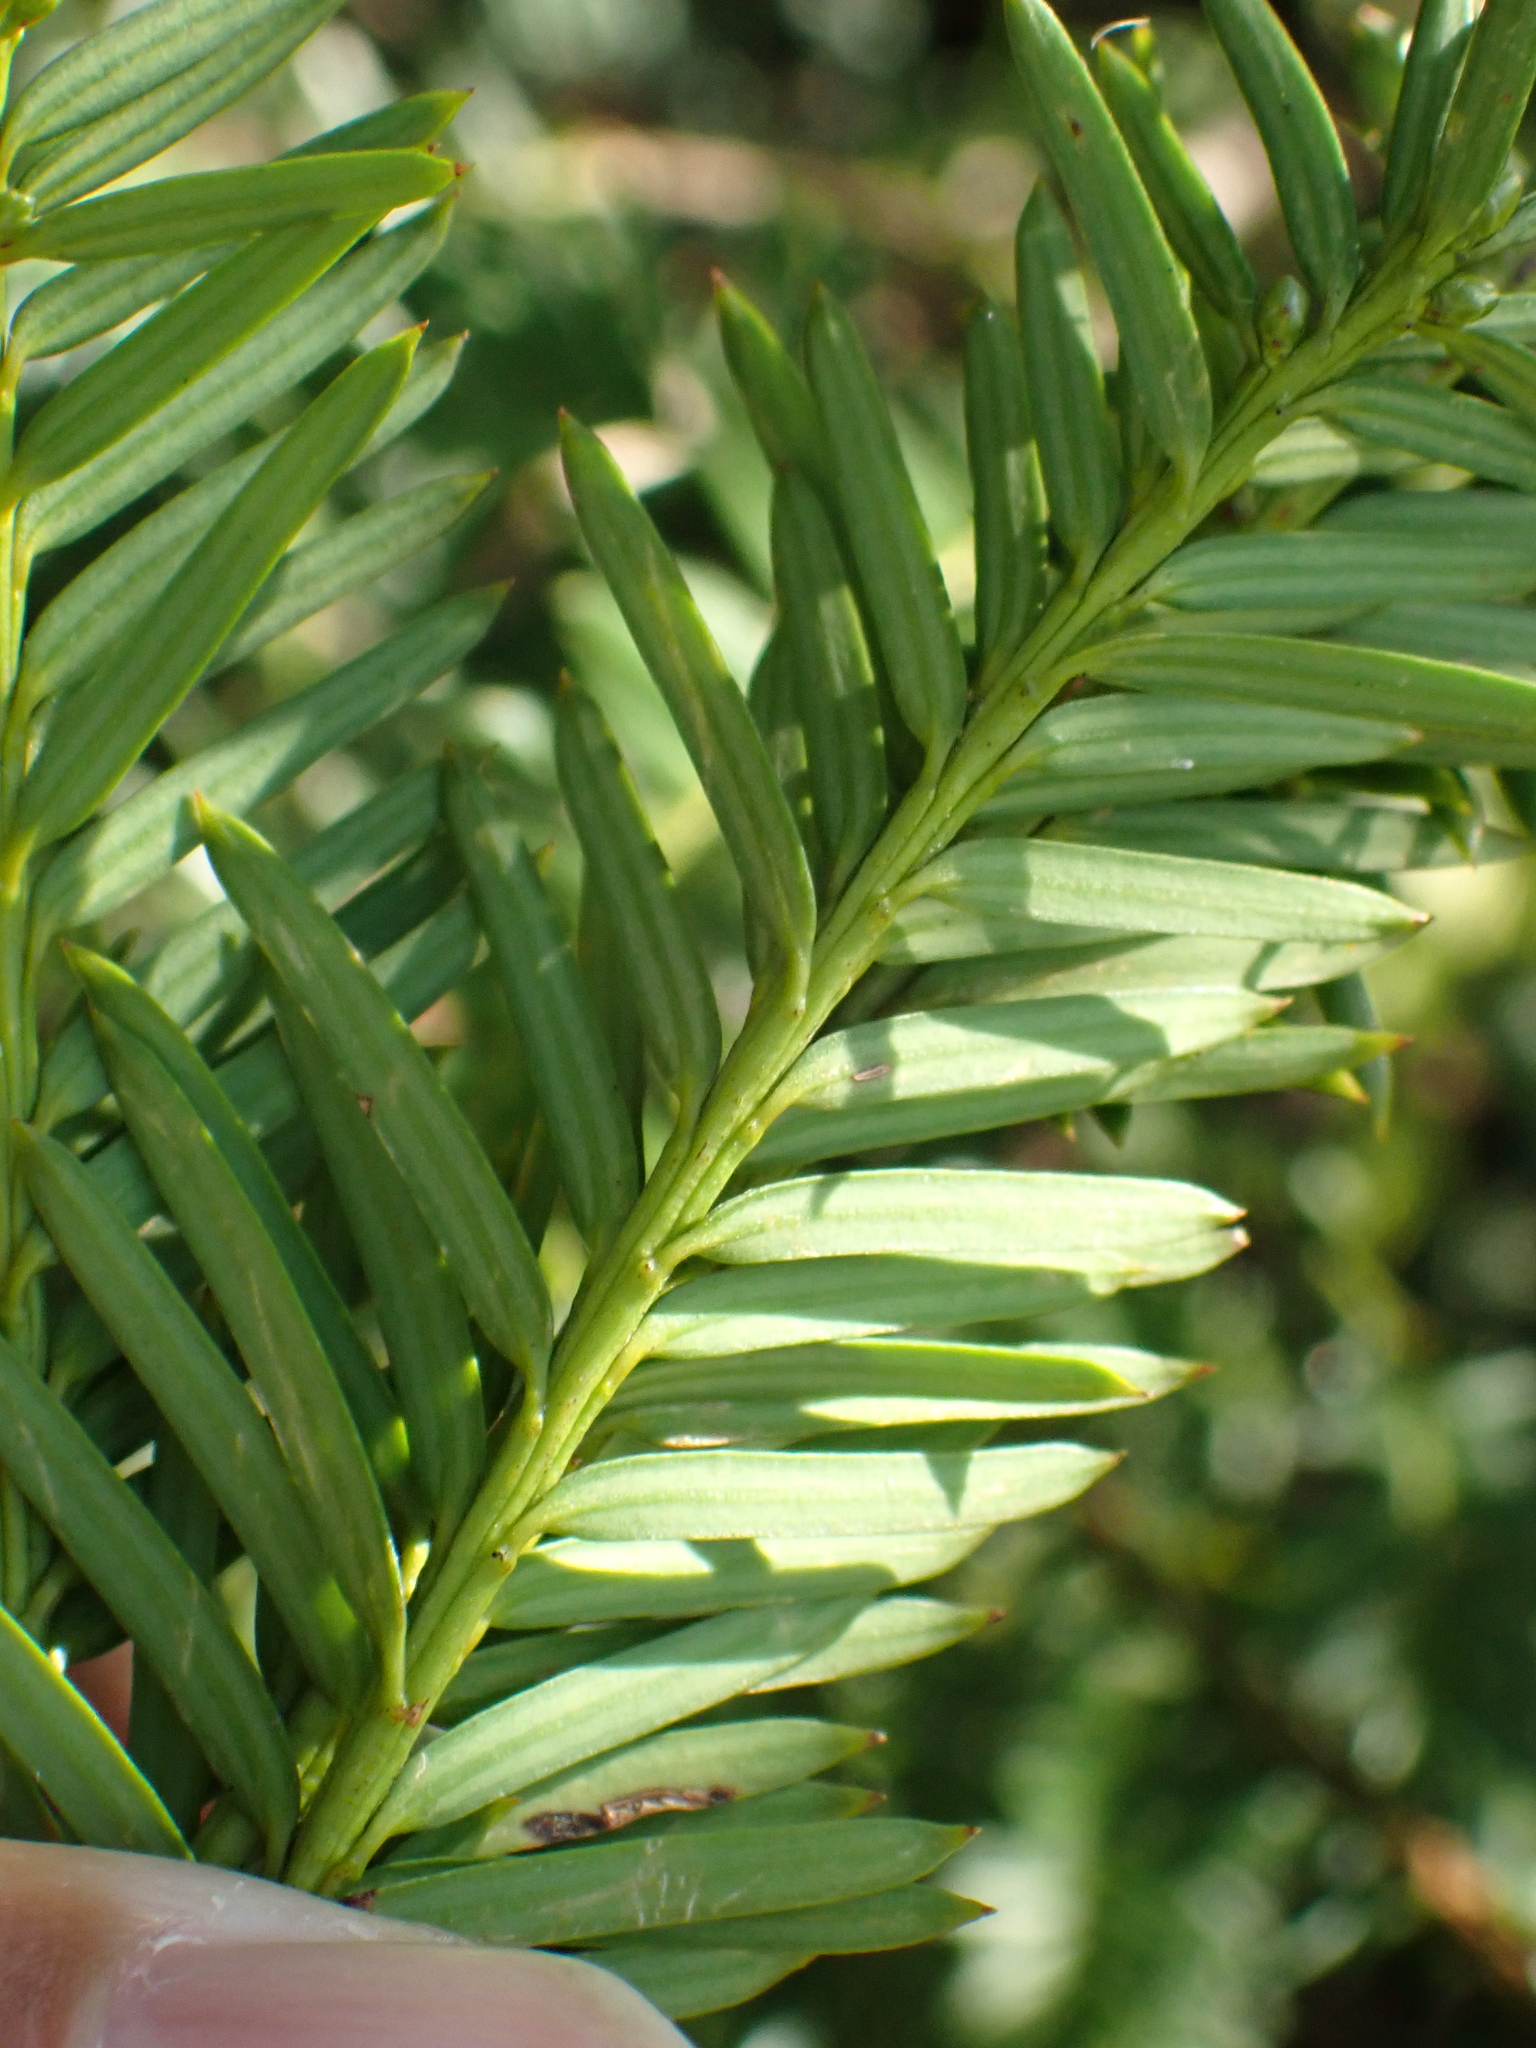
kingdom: Plantae
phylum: Tracheophyta
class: Pinopsida
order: Pinales
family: Taxaceae
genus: Taxus
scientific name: Taxus baccata
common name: Yew
